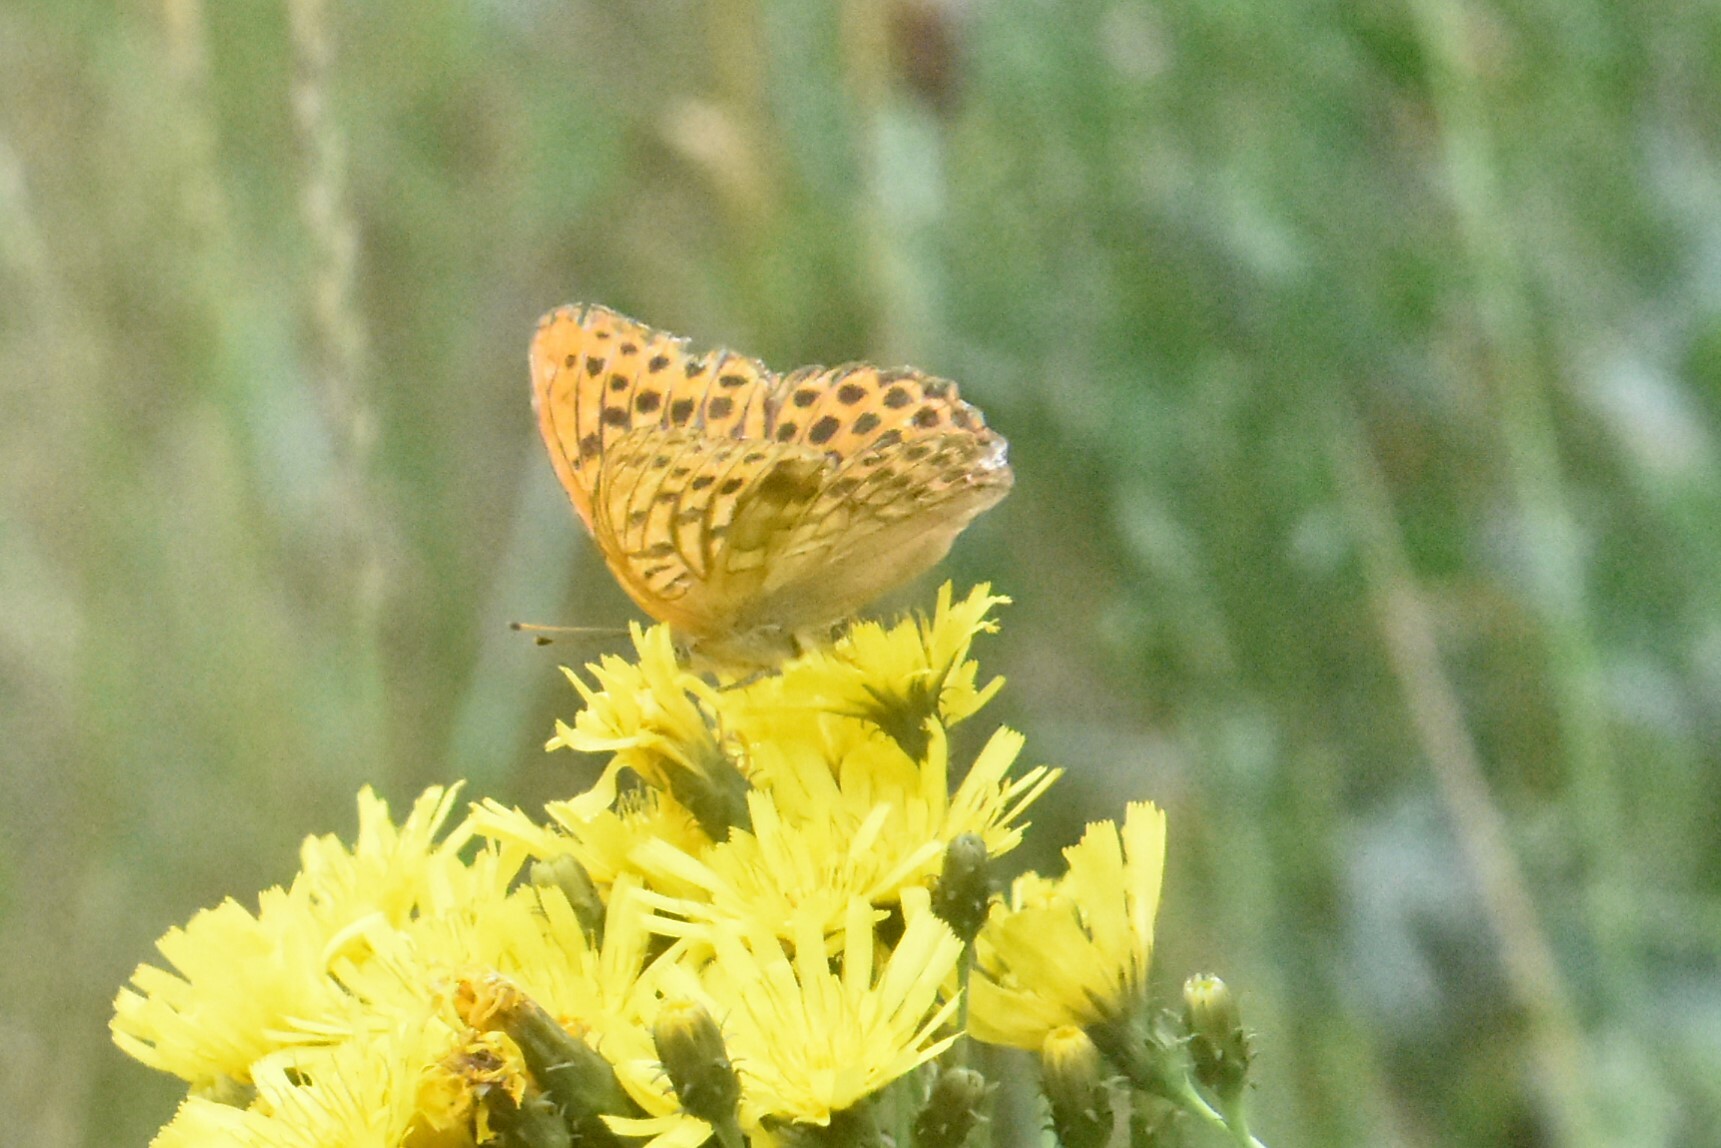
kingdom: Animalia
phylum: Arthropoda
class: Insecta
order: Lepidoptera
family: Nymphalidae
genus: Argynnis
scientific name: Argynnis paphia
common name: Silver-washed fritillary
